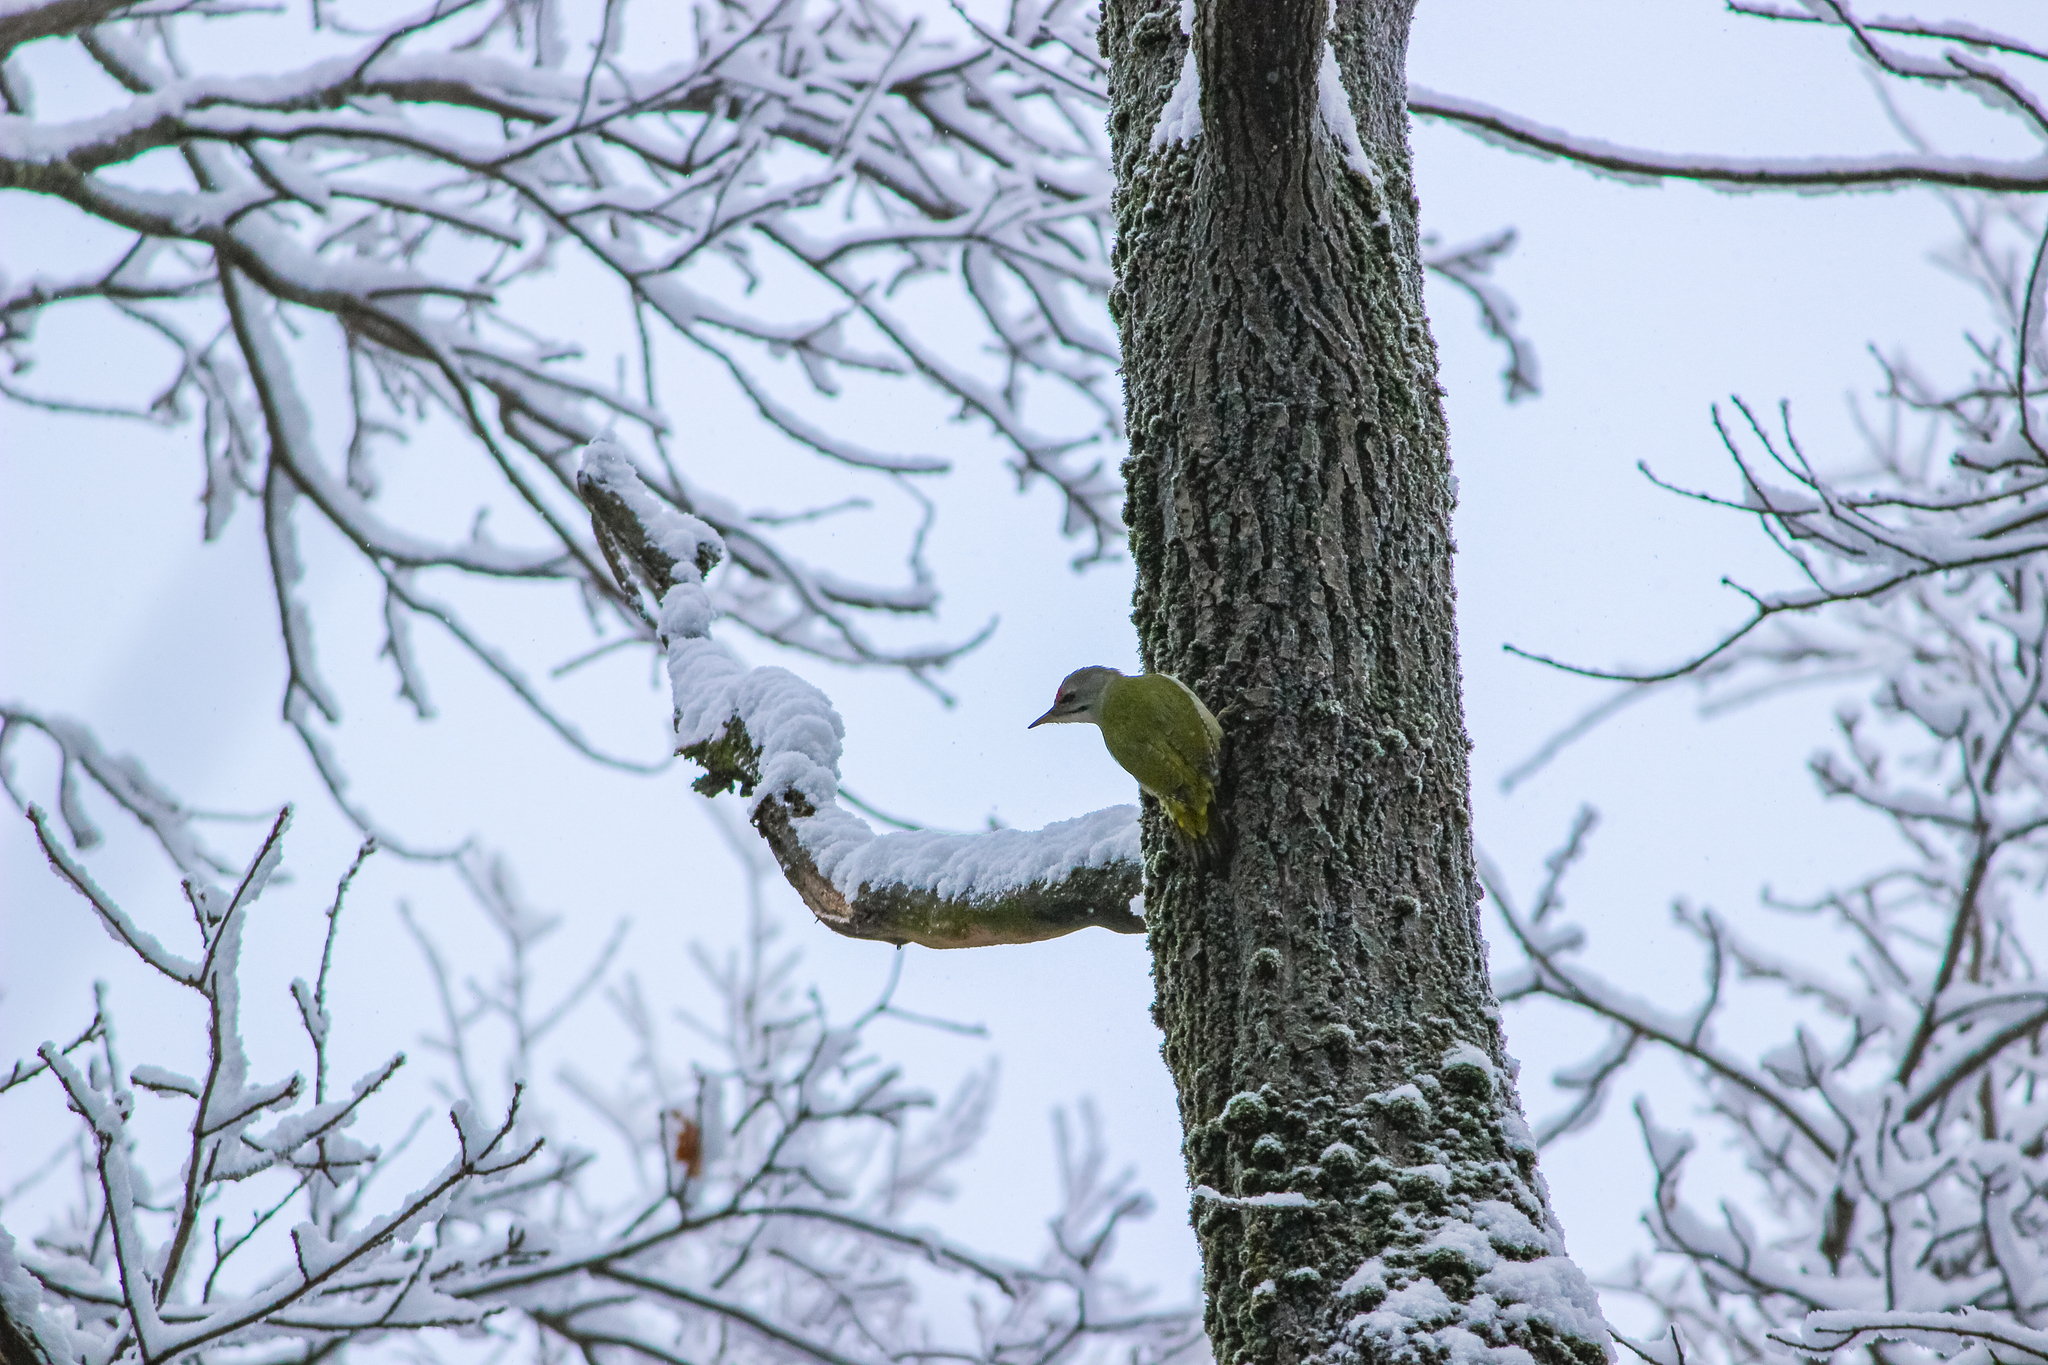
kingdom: Animalia
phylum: Chordata
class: Aves
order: Piciformes
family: Picidae
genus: Picus
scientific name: Picus canus
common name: Grey-headed woodpecker
